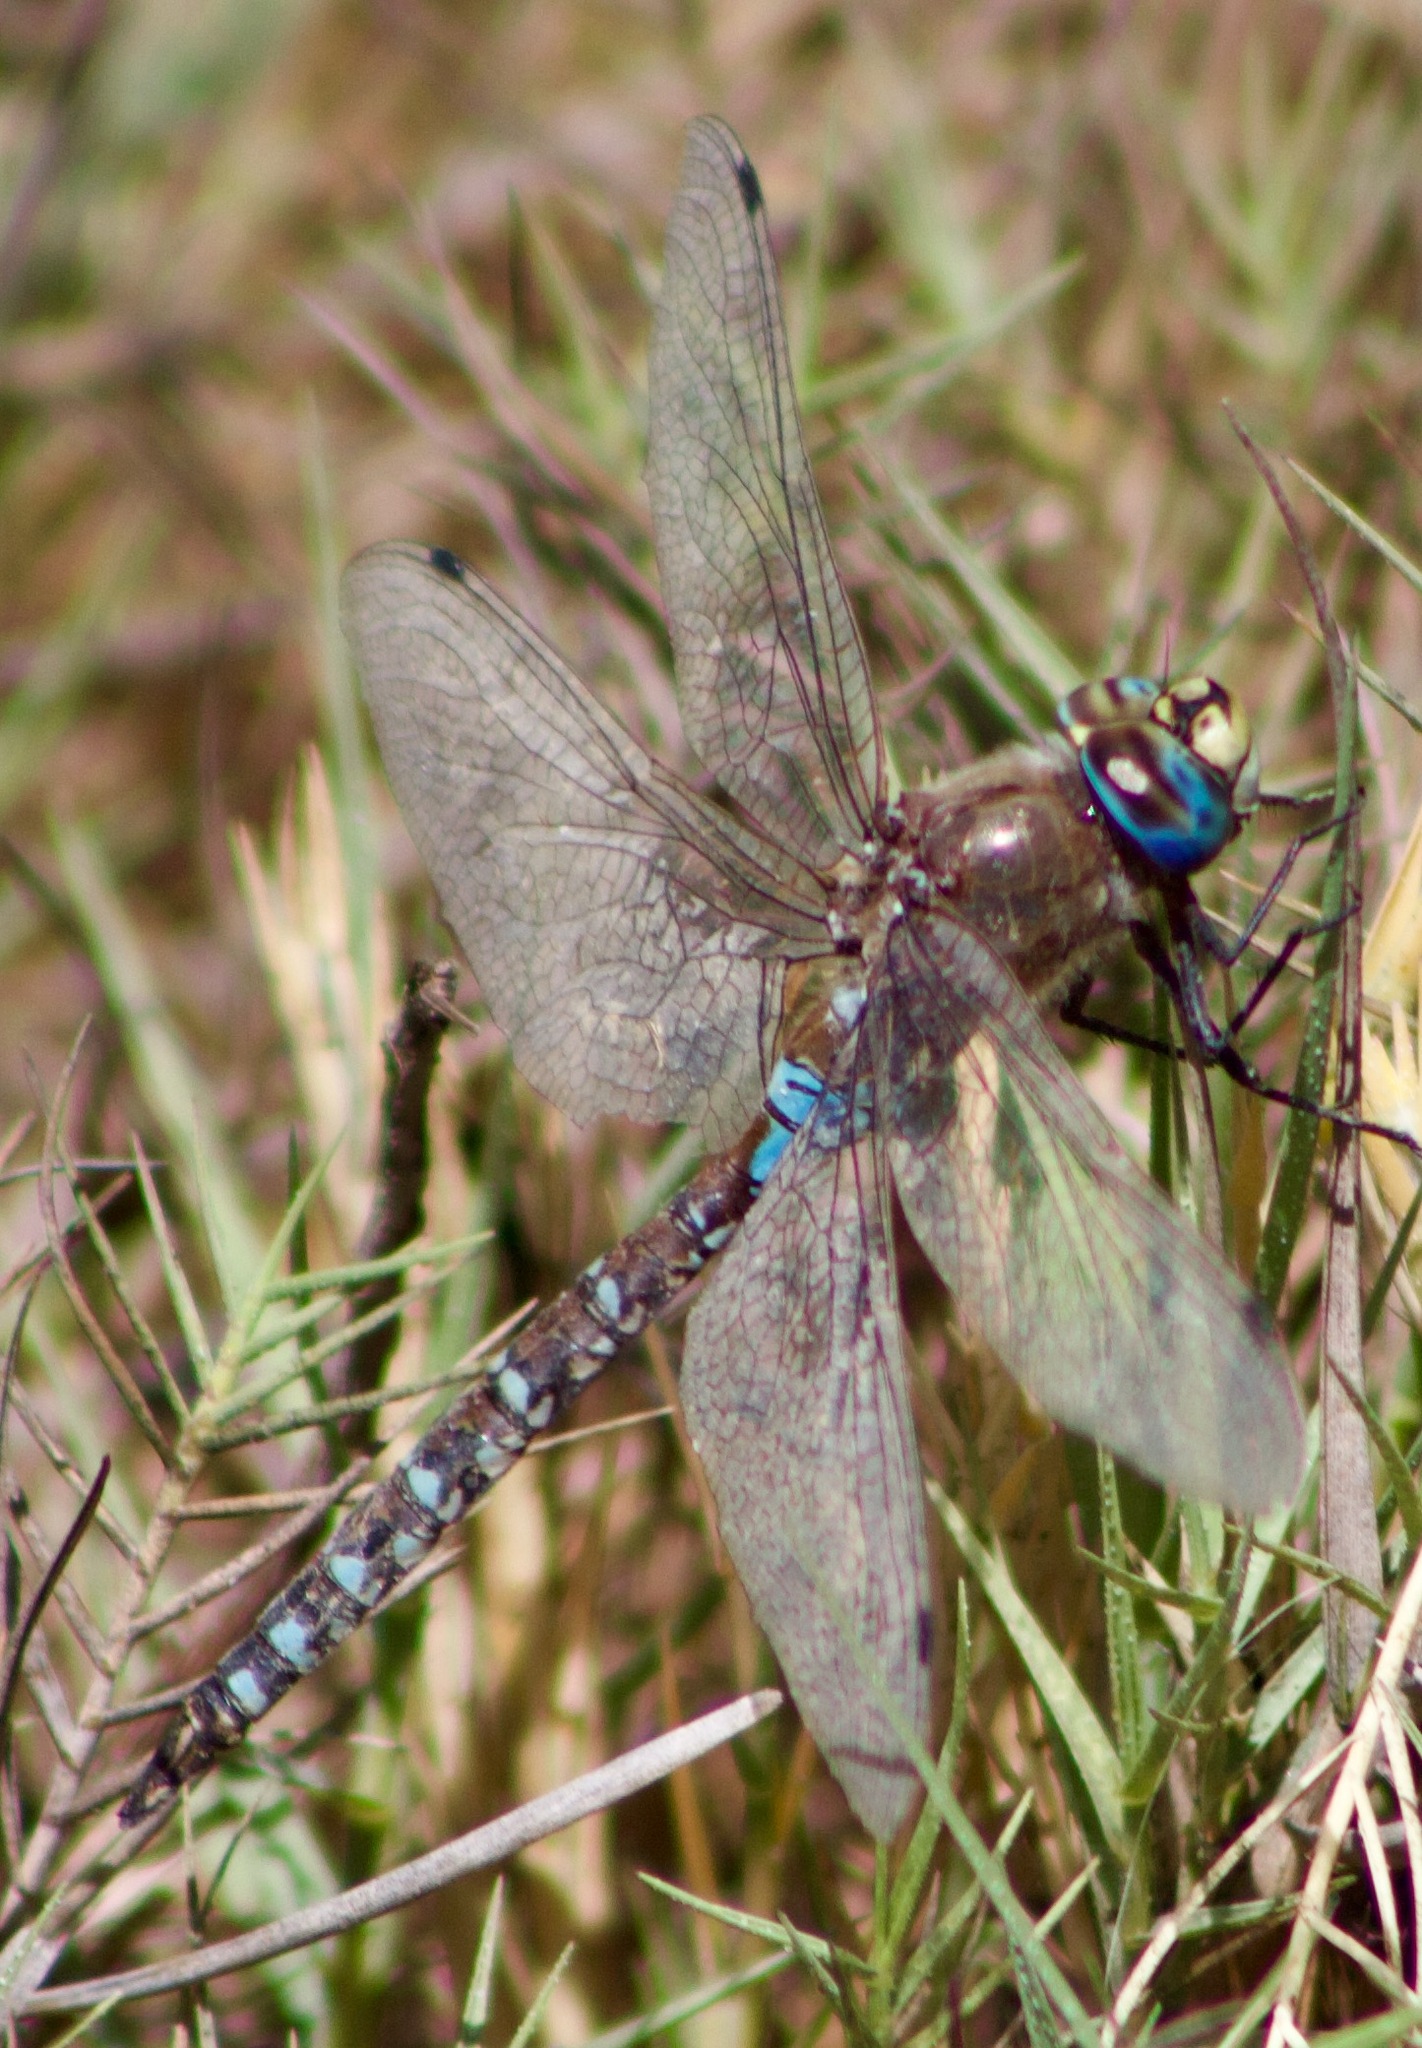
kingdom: Animalia
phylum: Arthropoda
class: Insecta
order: Odonata
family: Aeshnidae
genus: Rhionaeschna
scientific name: Rhionaeschna diffinis
